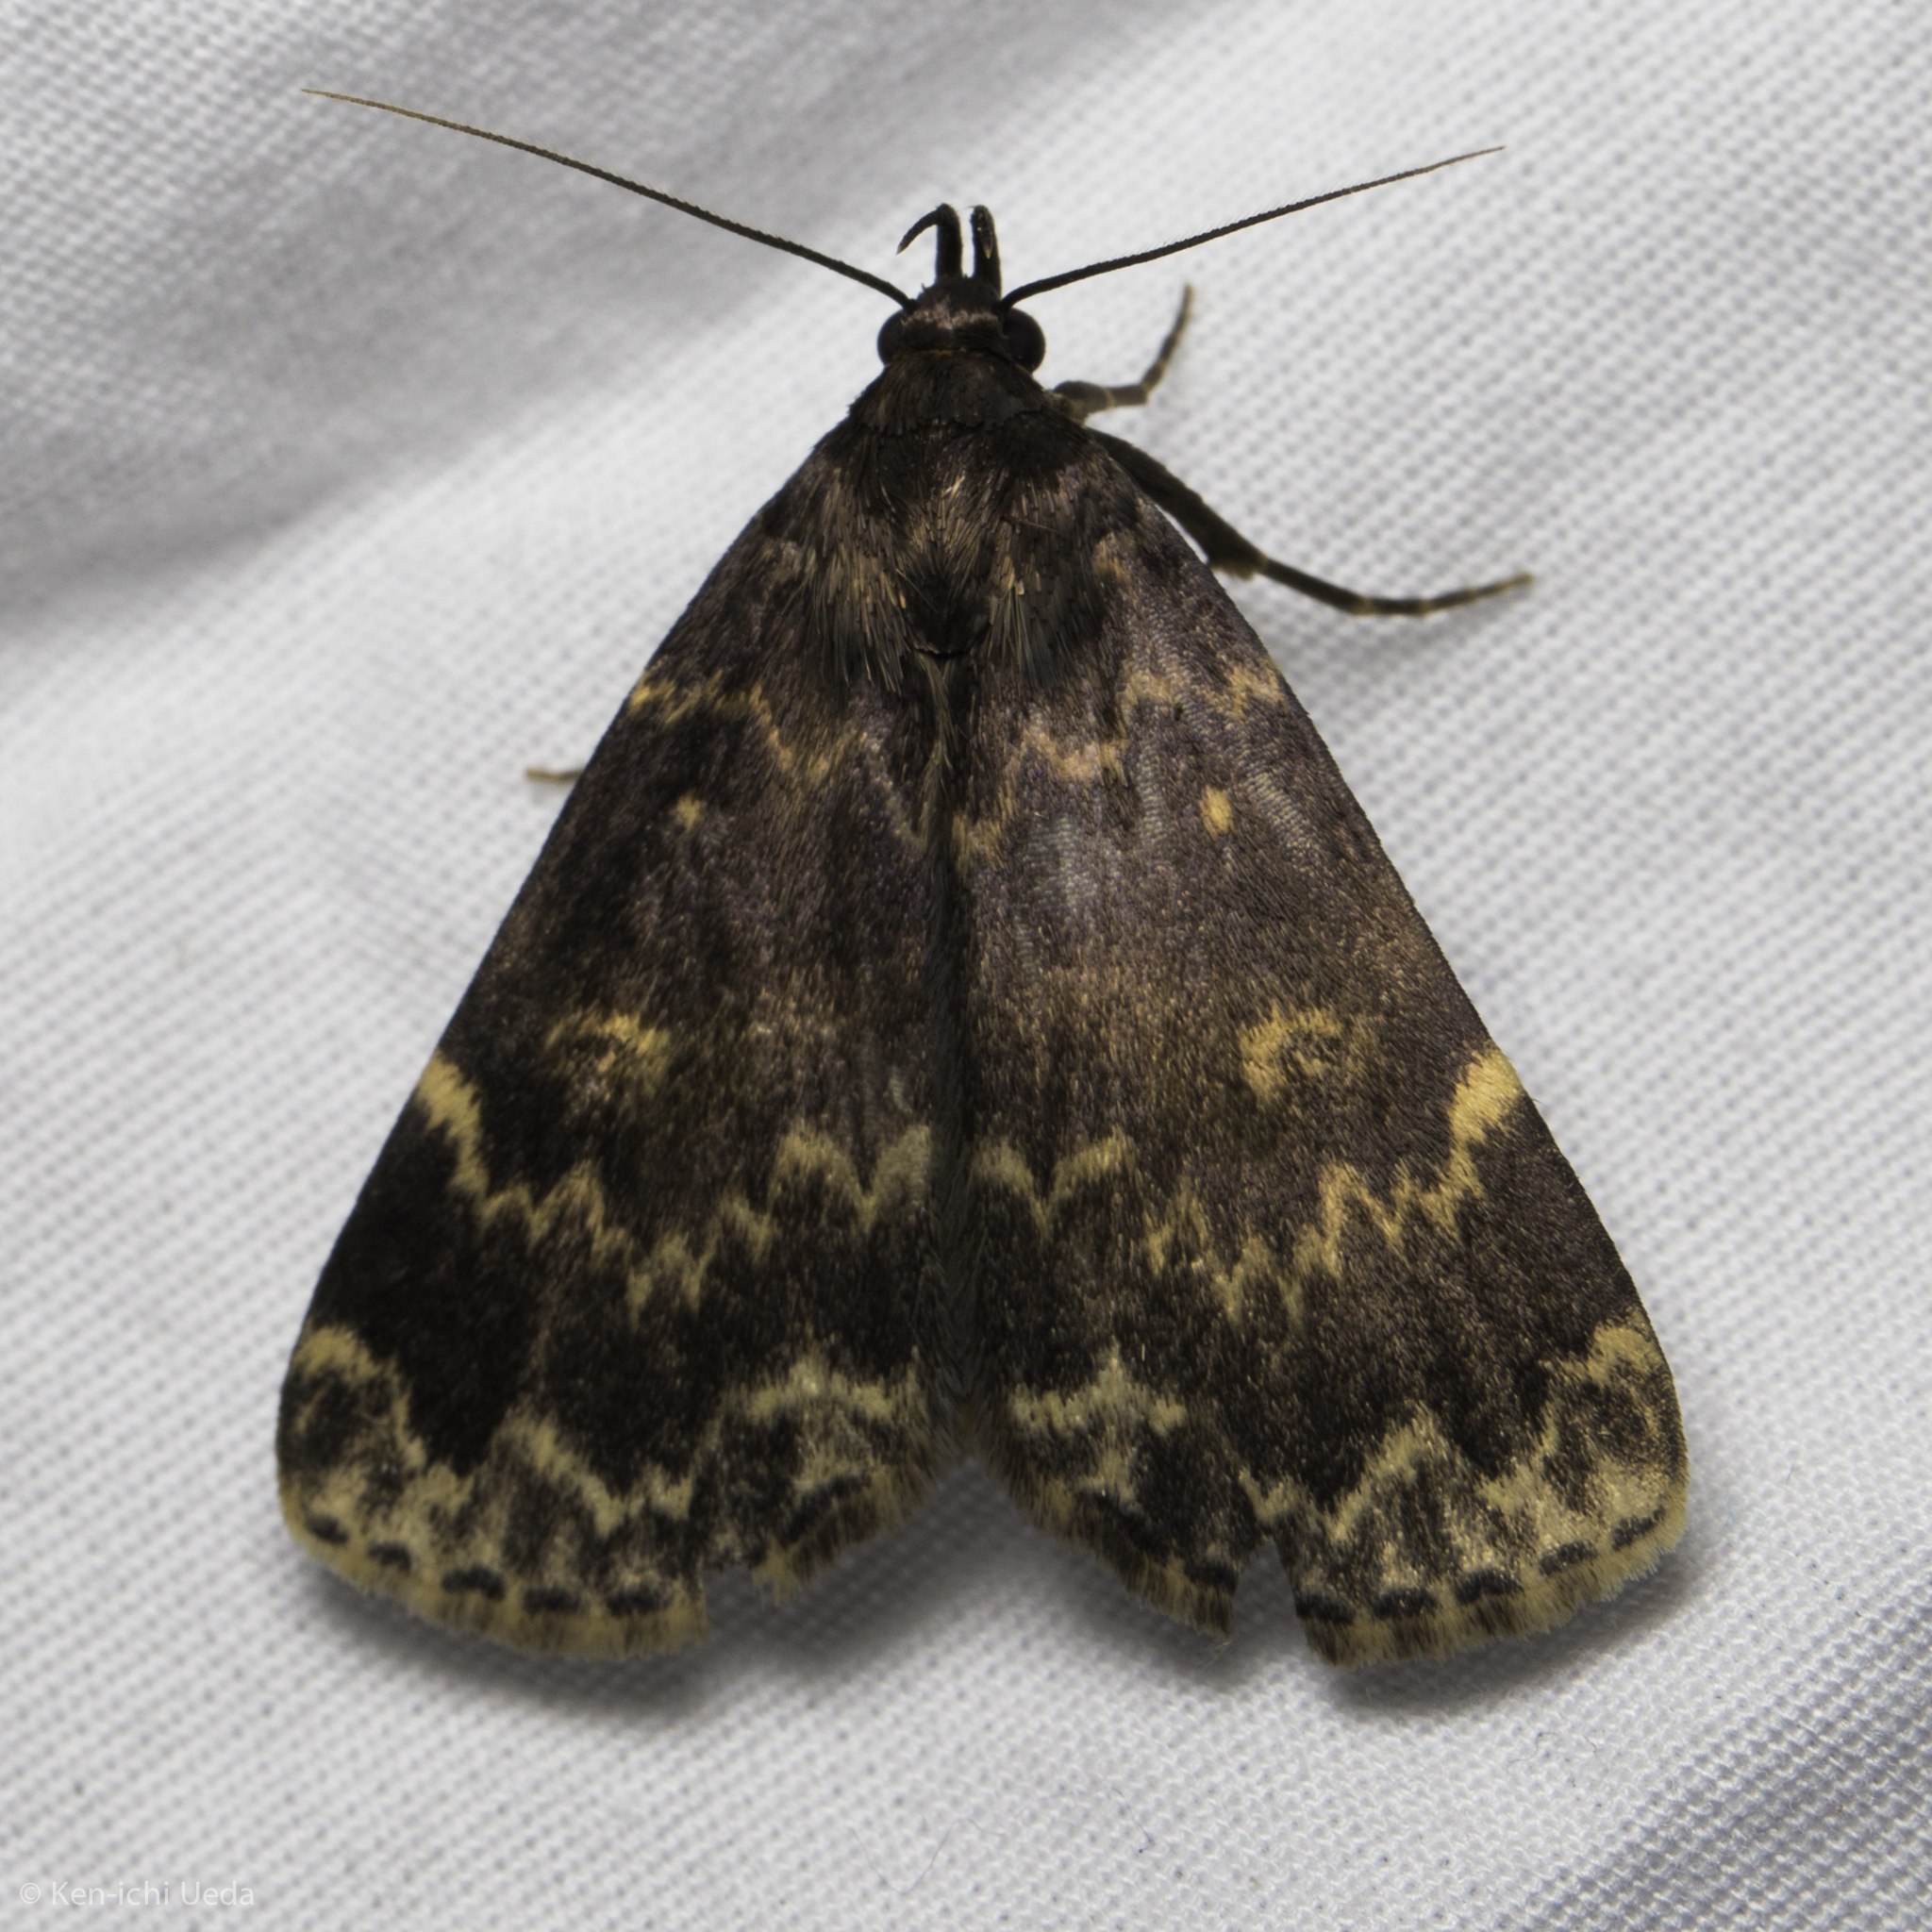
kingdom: Animalia
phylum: Arthropoda
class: Insecta
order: Lepidoptera
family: Erebidae
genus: Idia
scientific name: Idia lubricalis
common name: Twin-striped tabby
